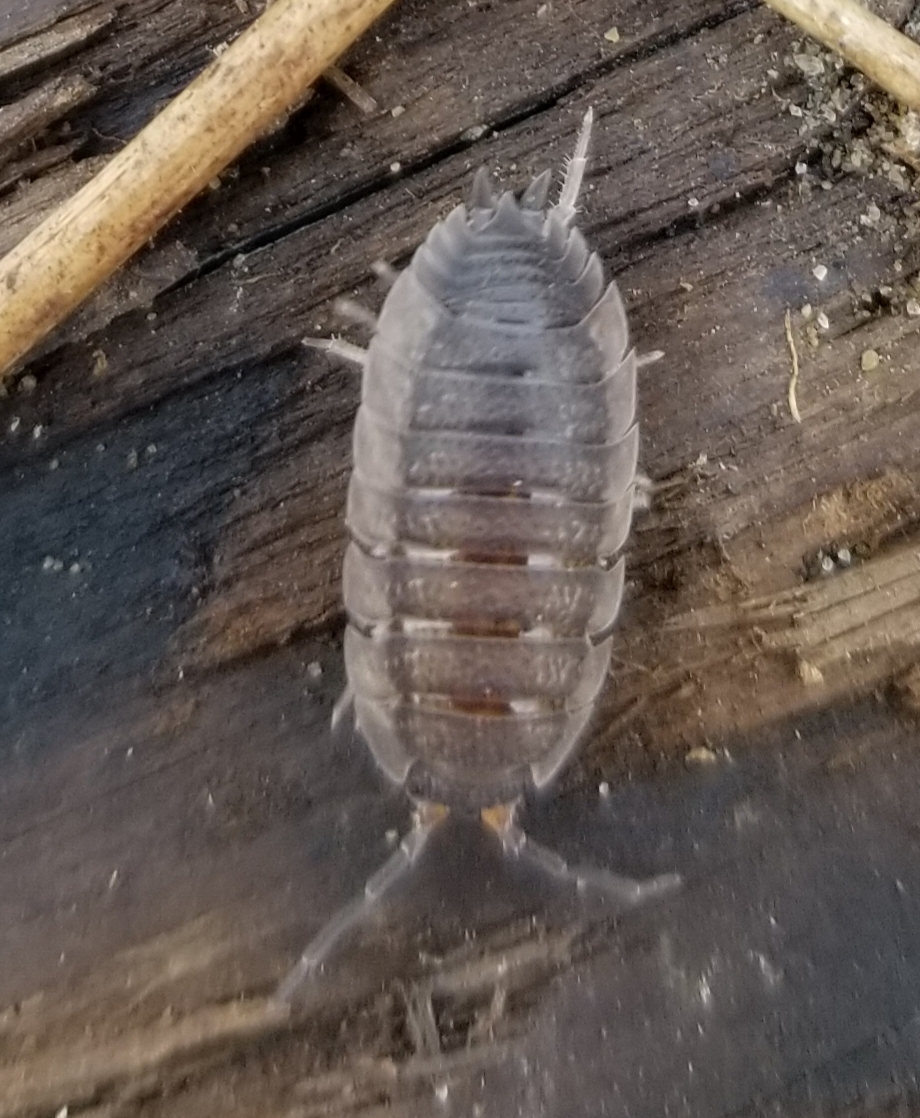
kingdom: Animalia
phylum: Arthropoda
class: Malacostraca
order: Isopoda
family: Porcellionidae
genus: Porcellio
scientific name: Porcellio scaber
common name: Common rough woodlouse
